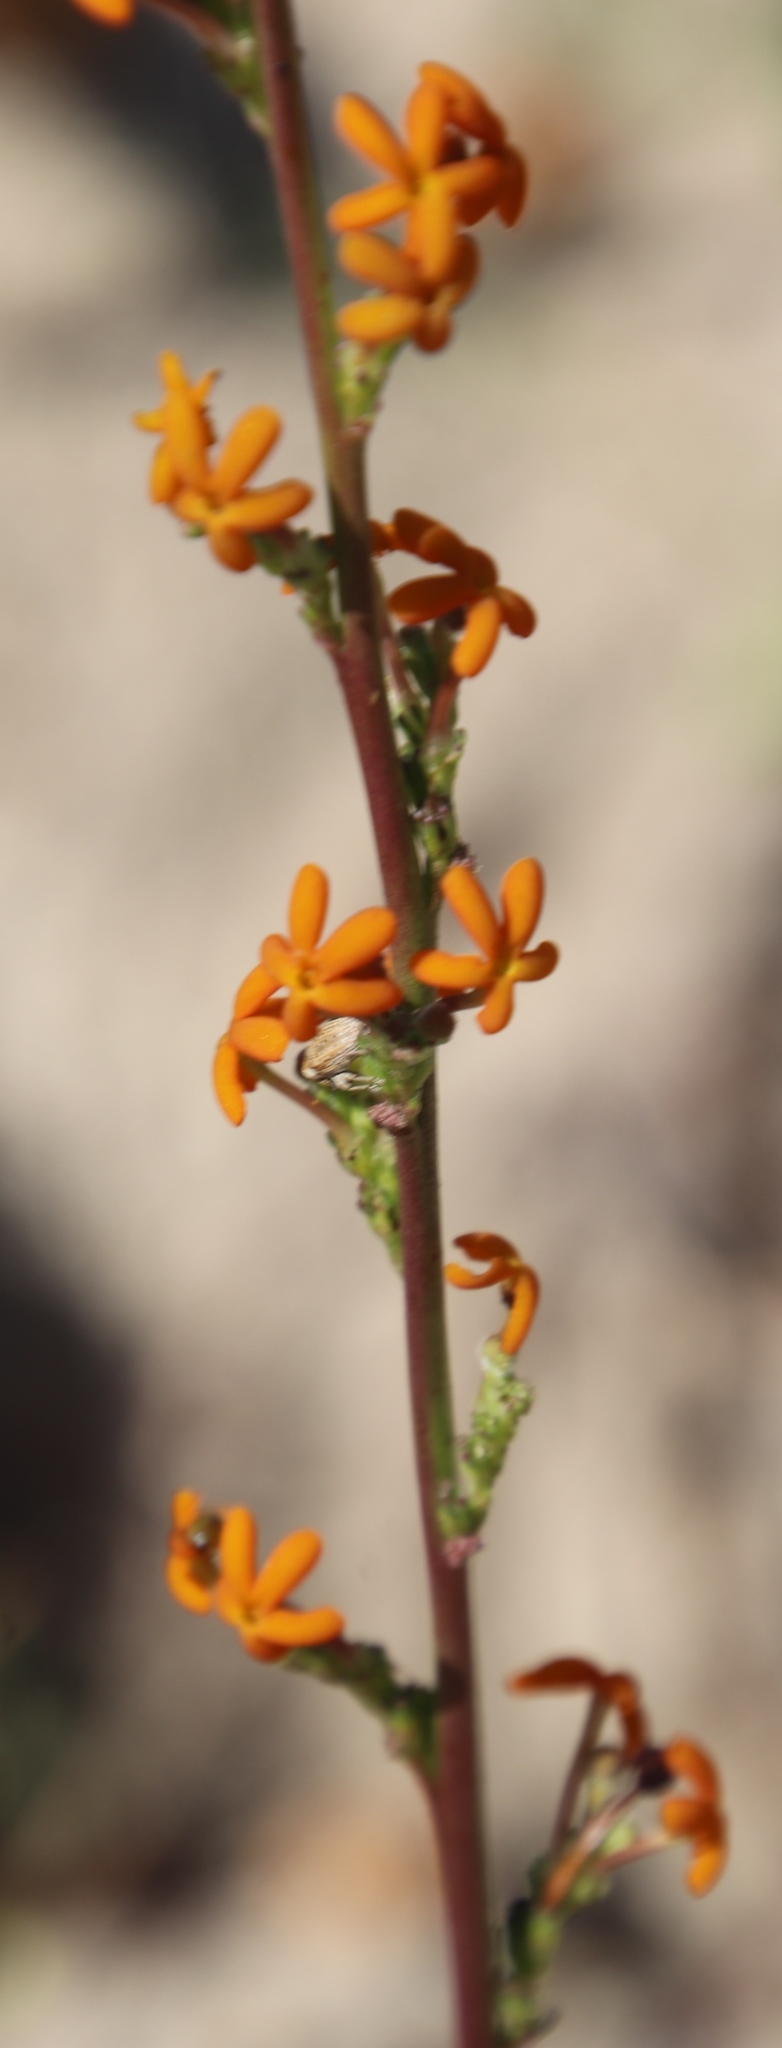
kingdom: Plantae
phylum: Tracheophyta
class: Magnoliopsida
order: Lamiales
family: Scrophulariaceae
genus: Manulea
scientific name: Manulea rubra
